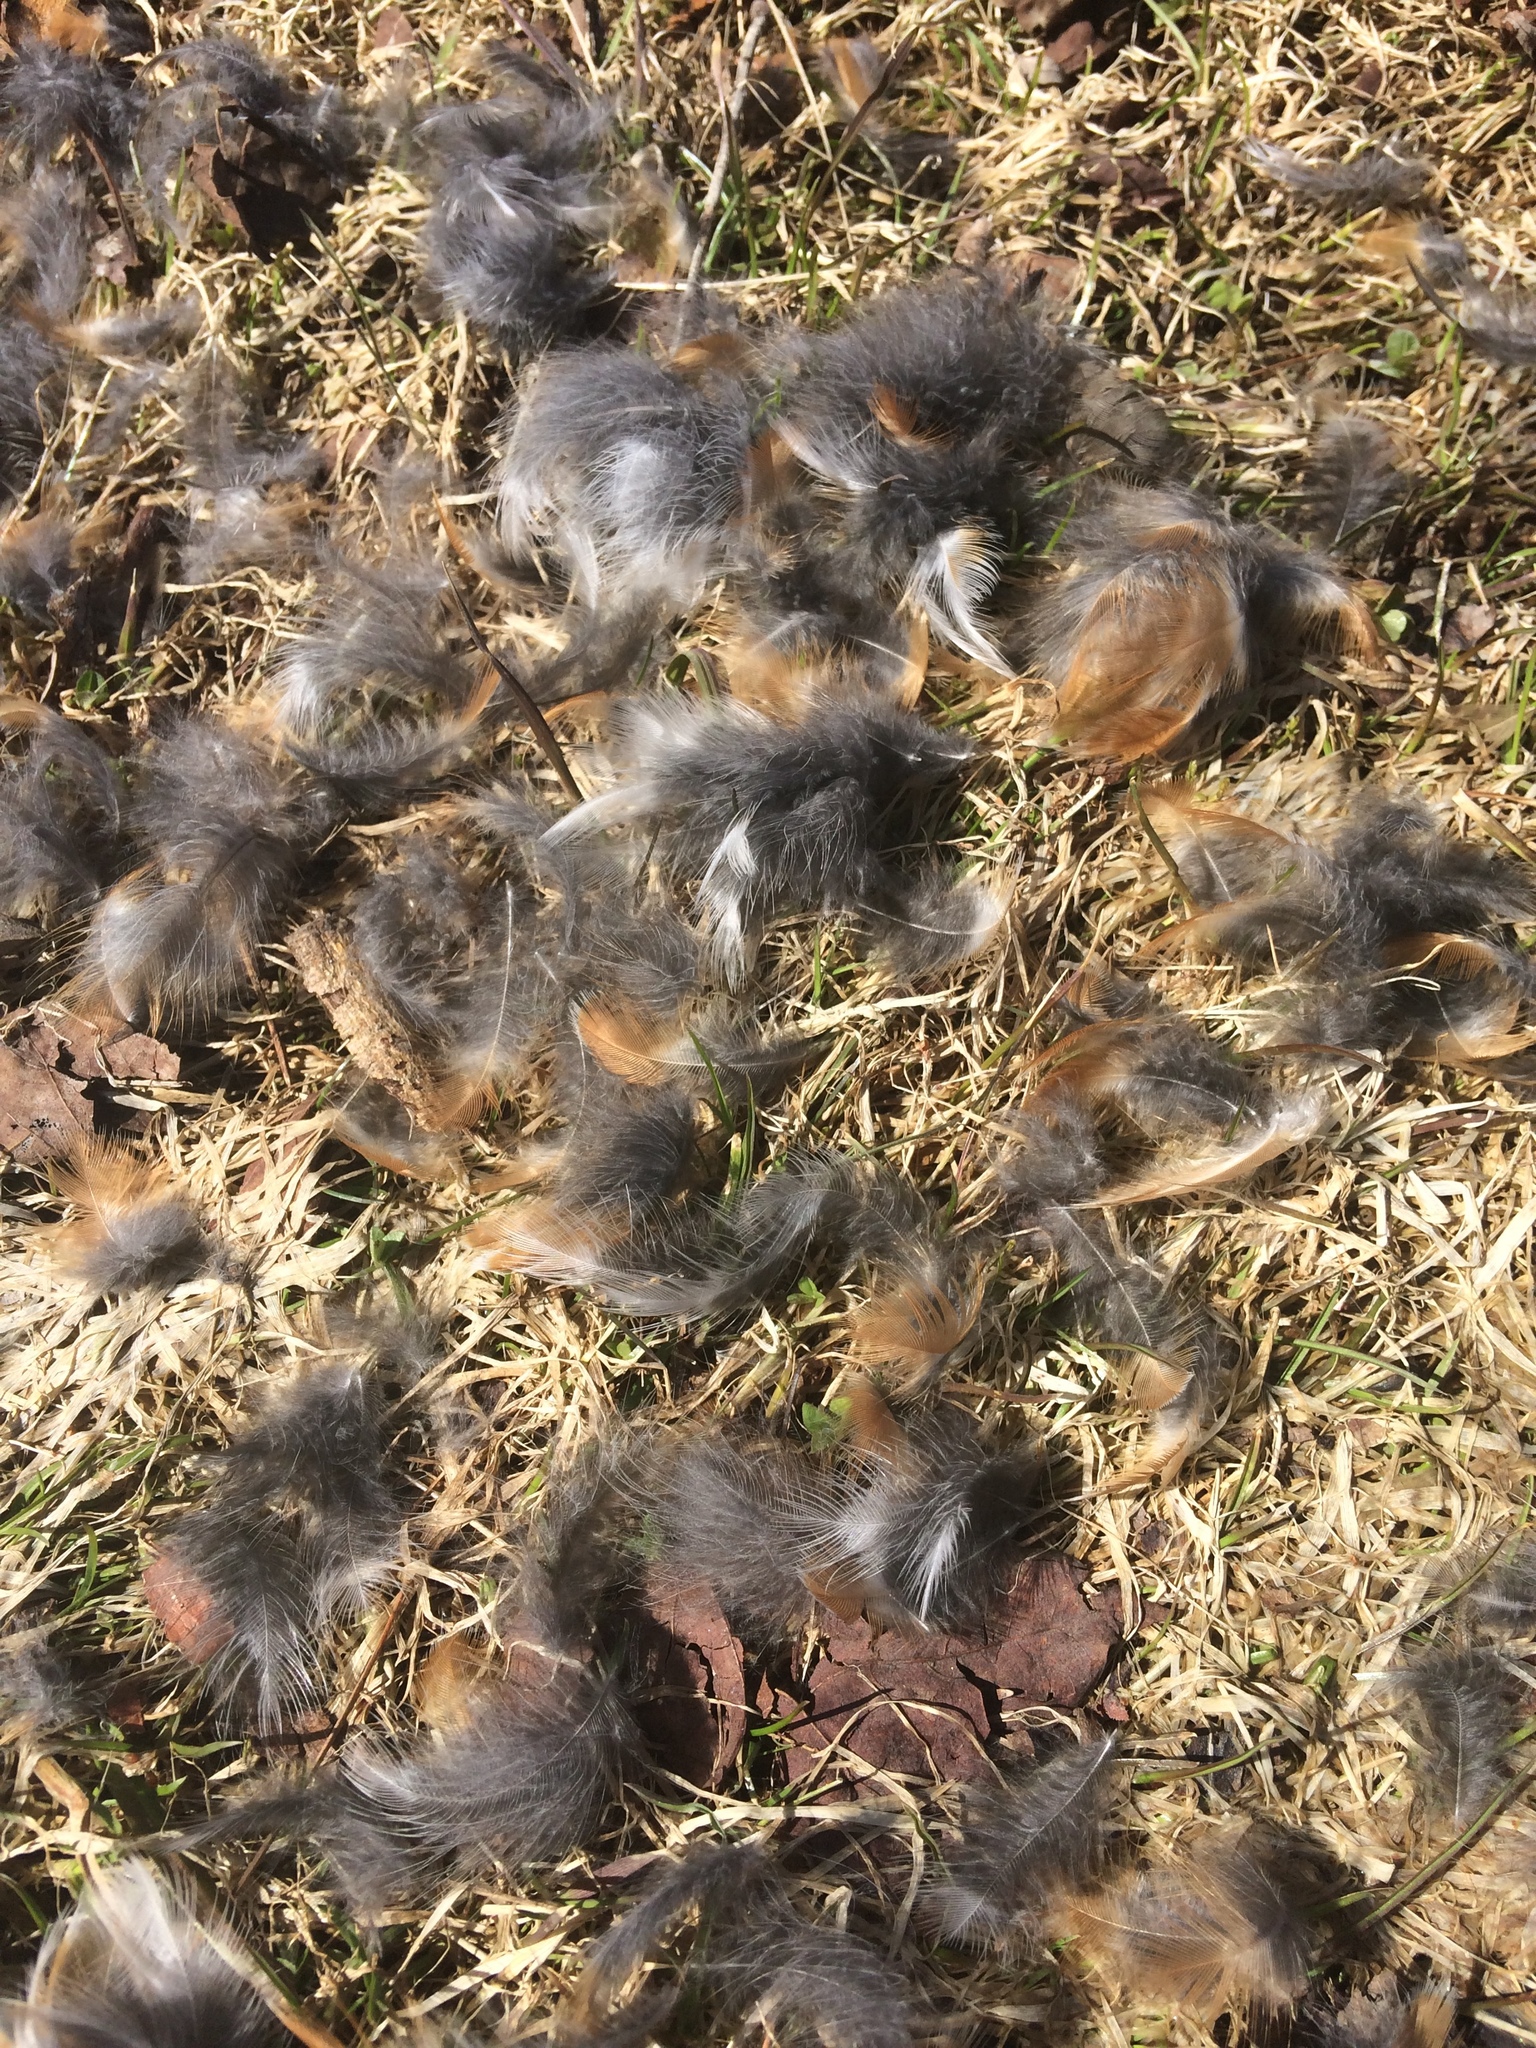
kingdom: Animalia
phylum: Chordata
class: Aves
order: Passeriformes
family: Turdidae
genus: Turdus
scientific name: Turdus migratorius
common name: American robin
